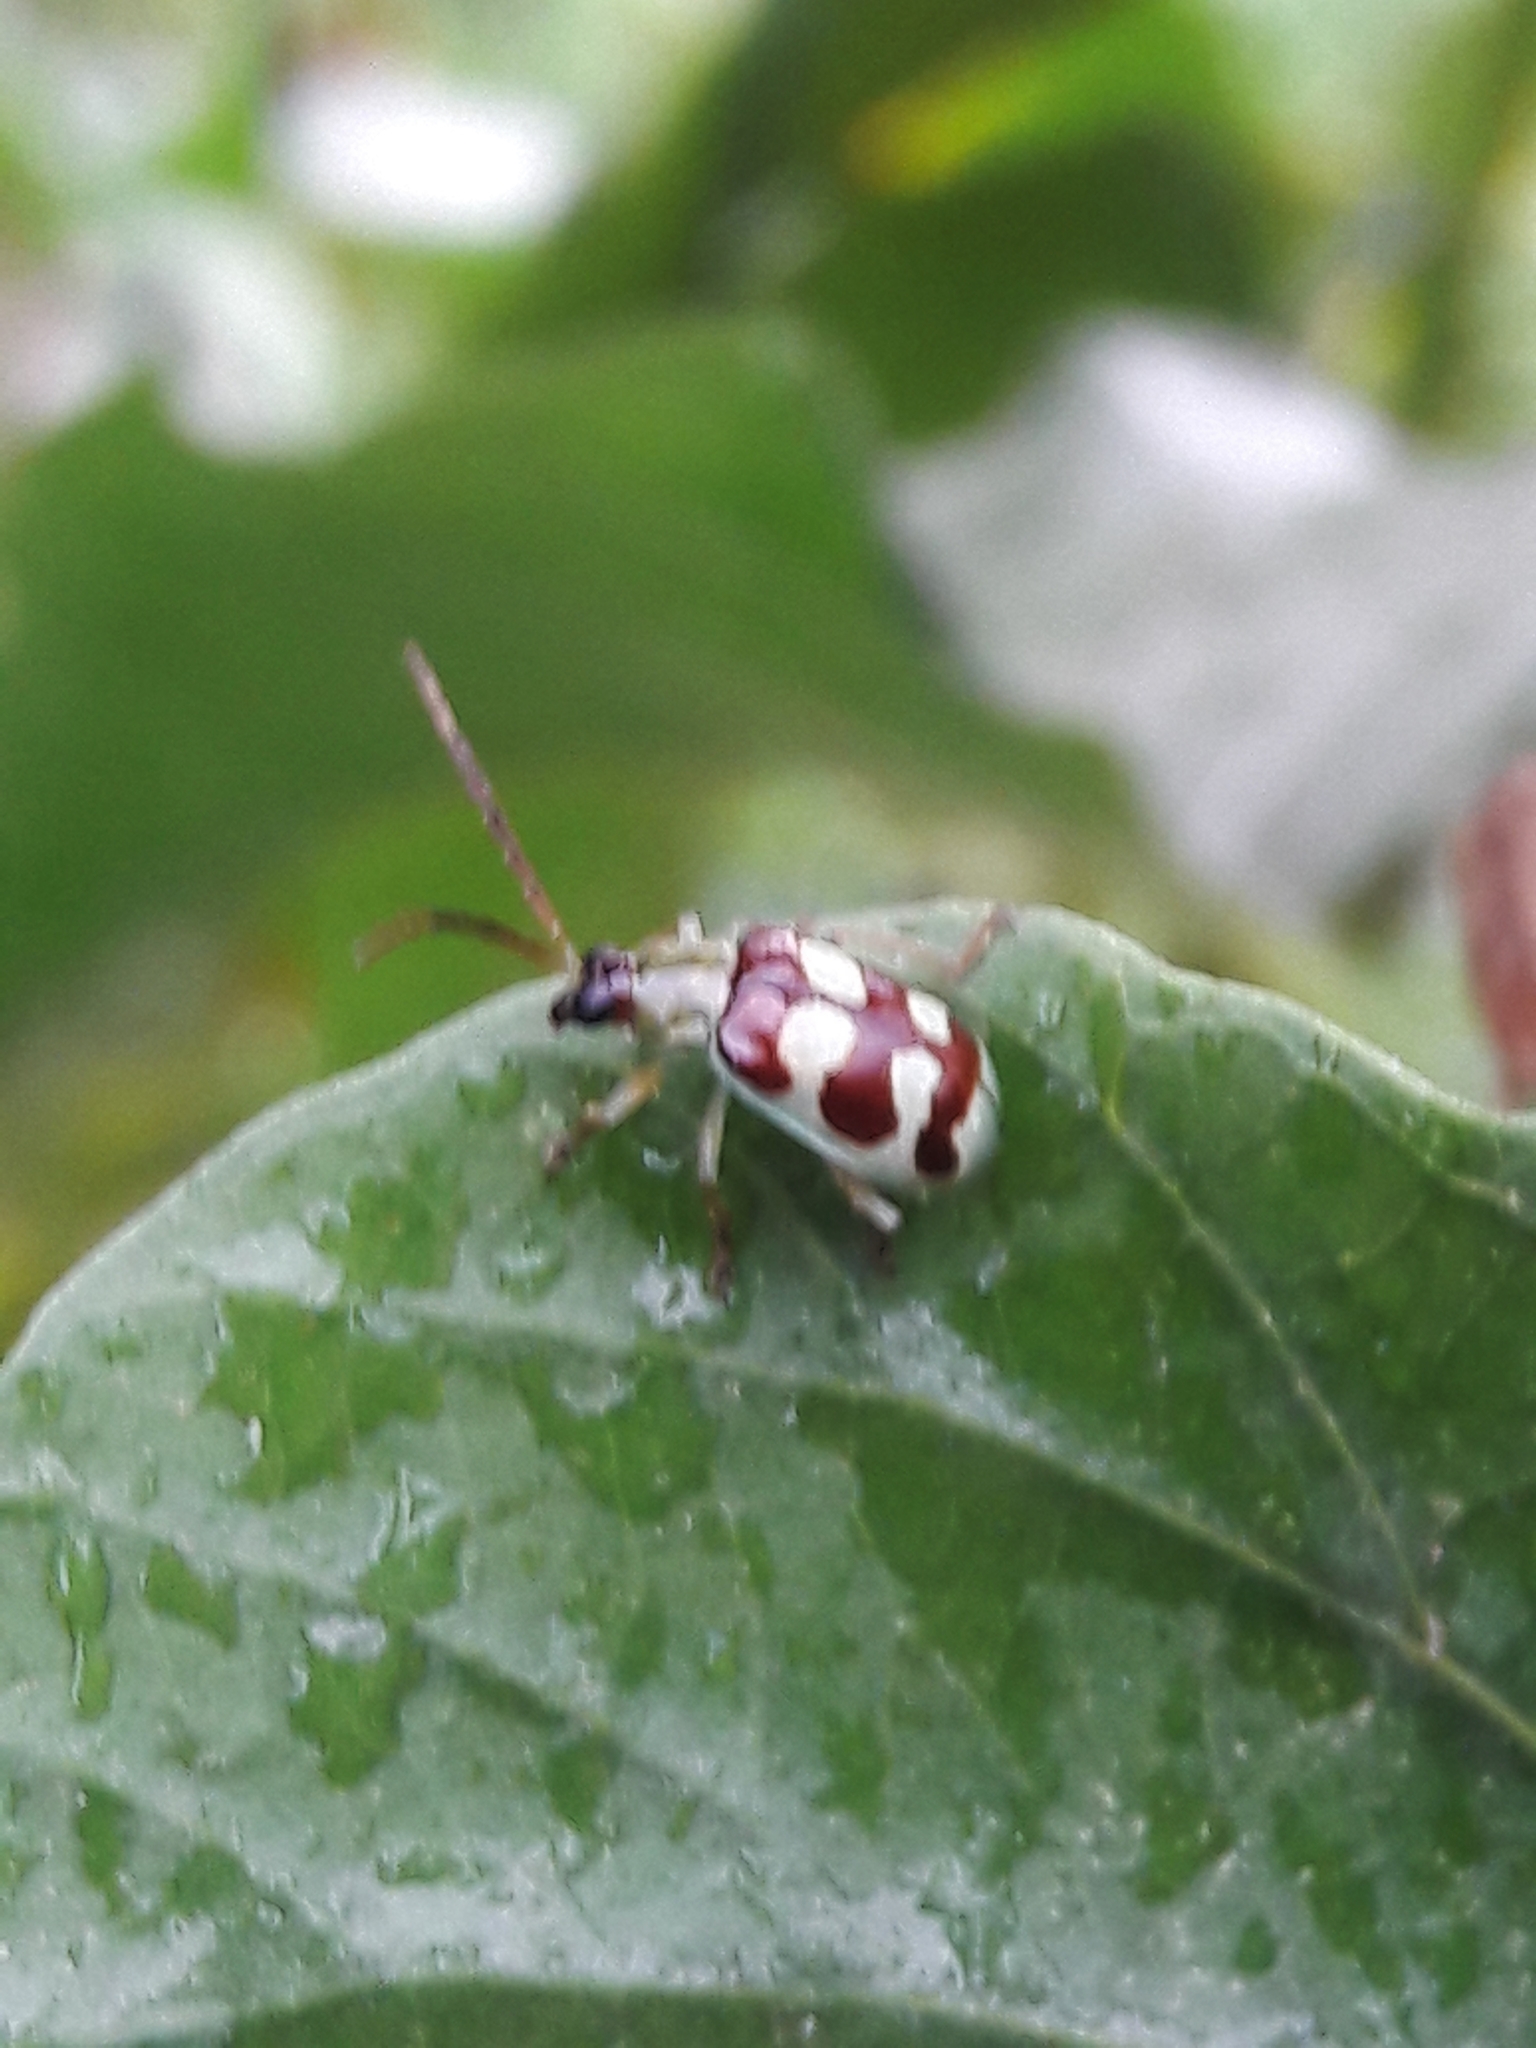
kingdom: Animalia
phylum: Arthropoda
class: Insecta
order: Coleoptera
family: Chrysomelidae
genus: Basiprionota
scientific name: Basiprionota sinuata
